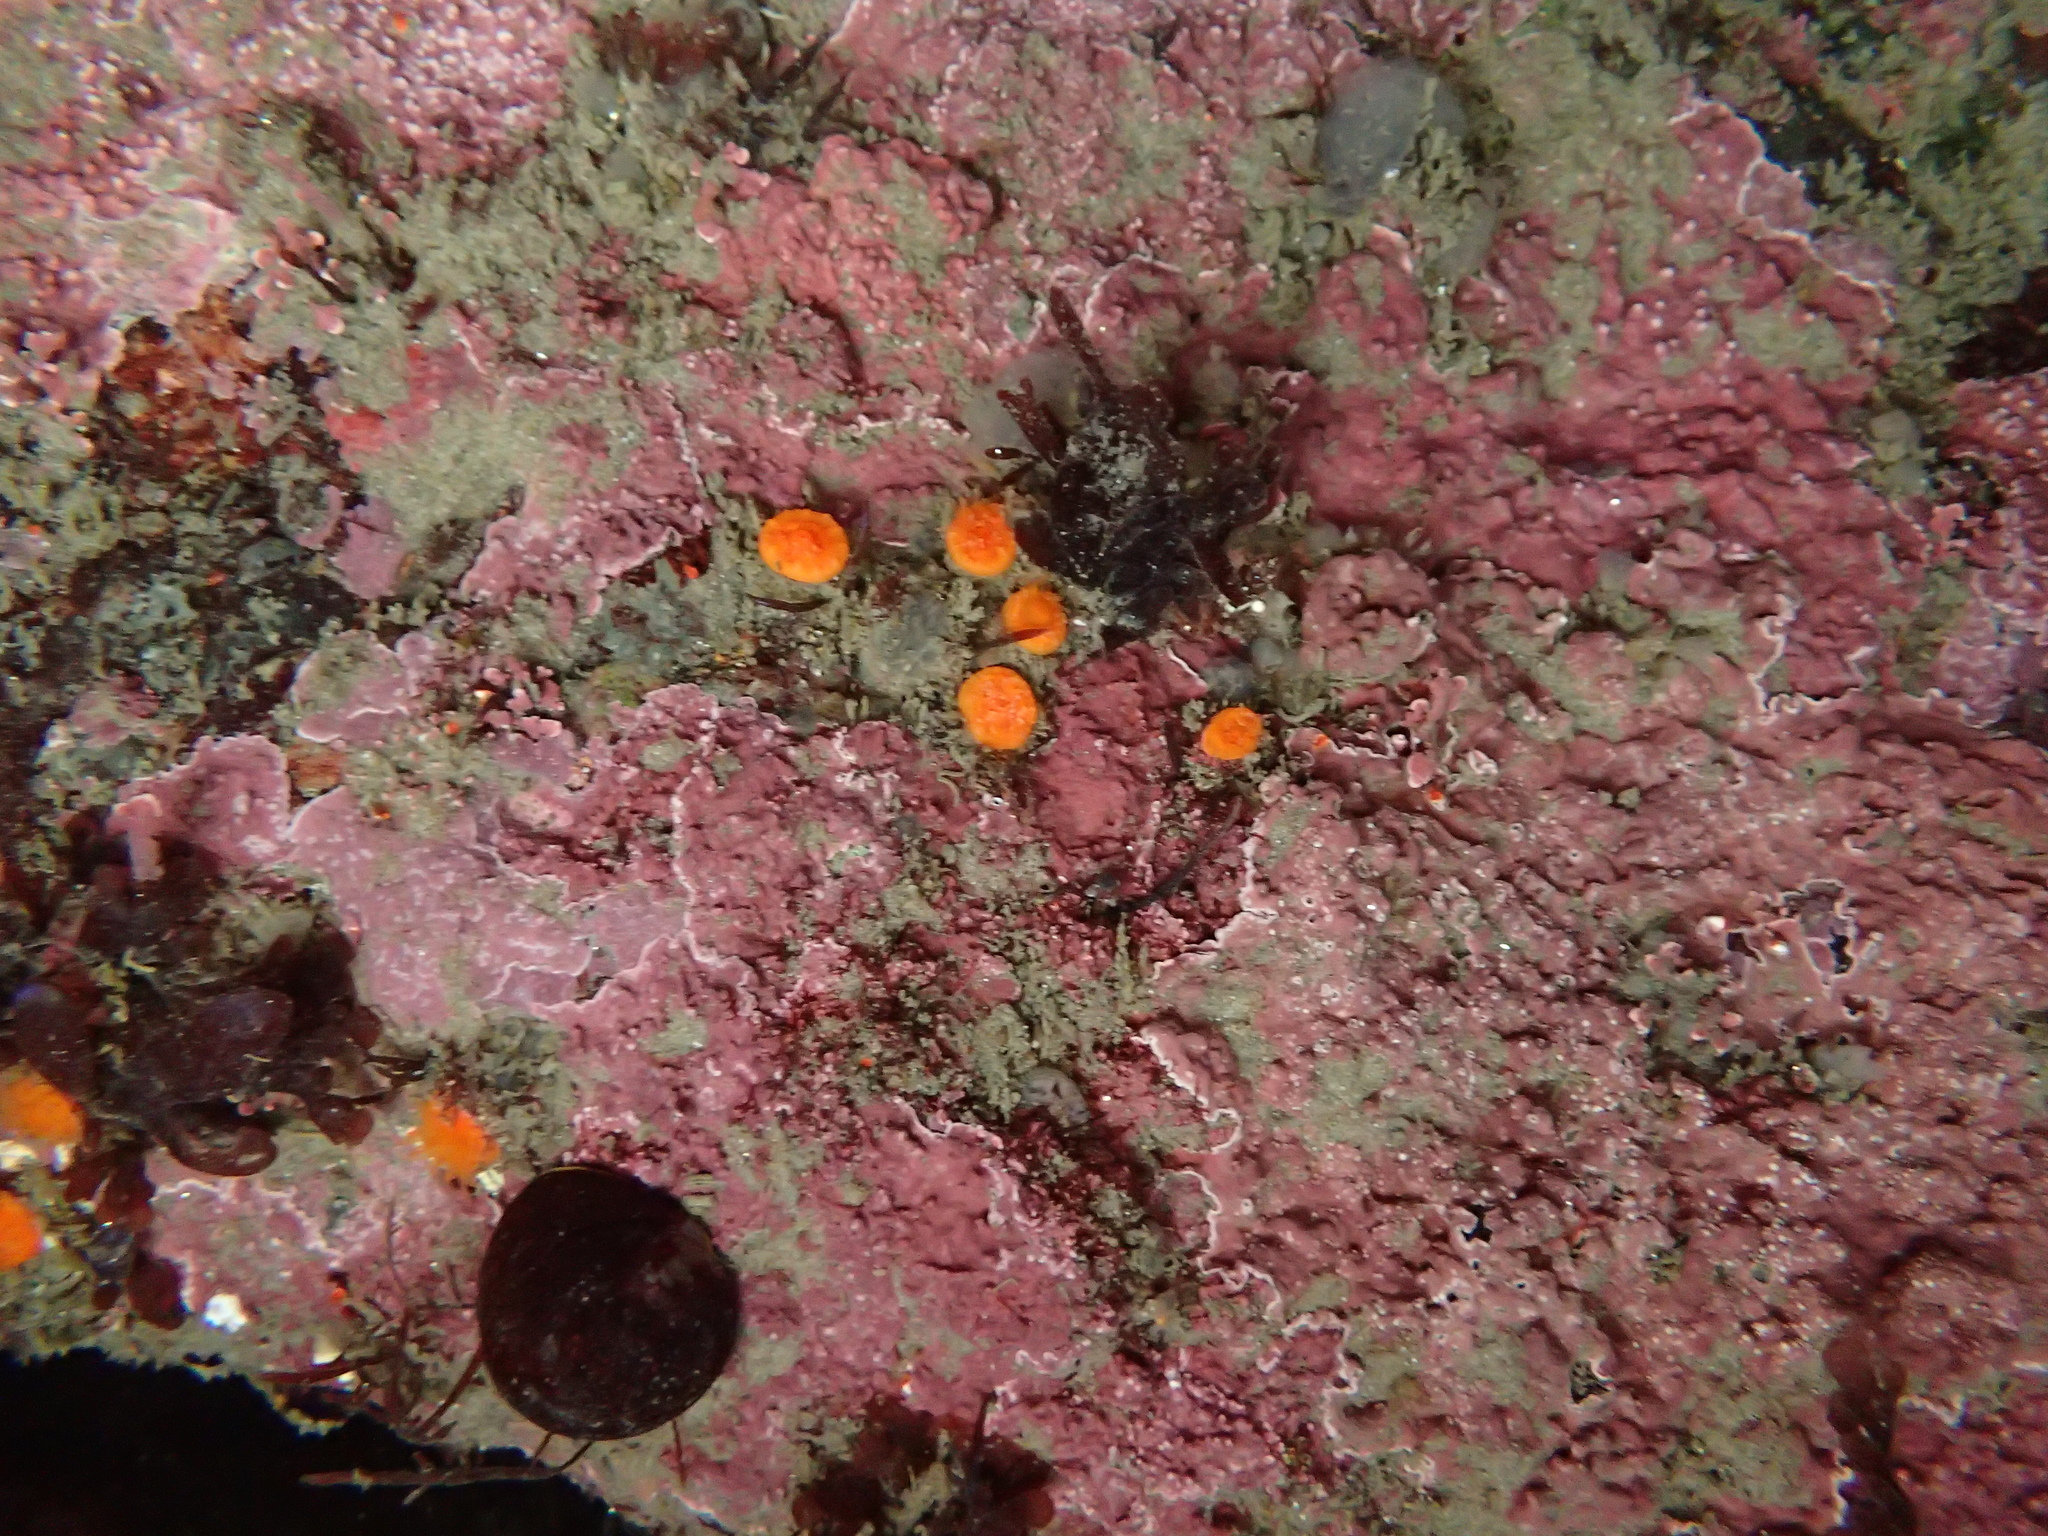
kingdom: Animalia
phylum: Cnidaria
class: Anthozoa
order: Scleractinia
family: Dendrophylliidae
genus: Balanophyllia
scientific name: Balanophyllia elegans
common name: Orange stony coral
